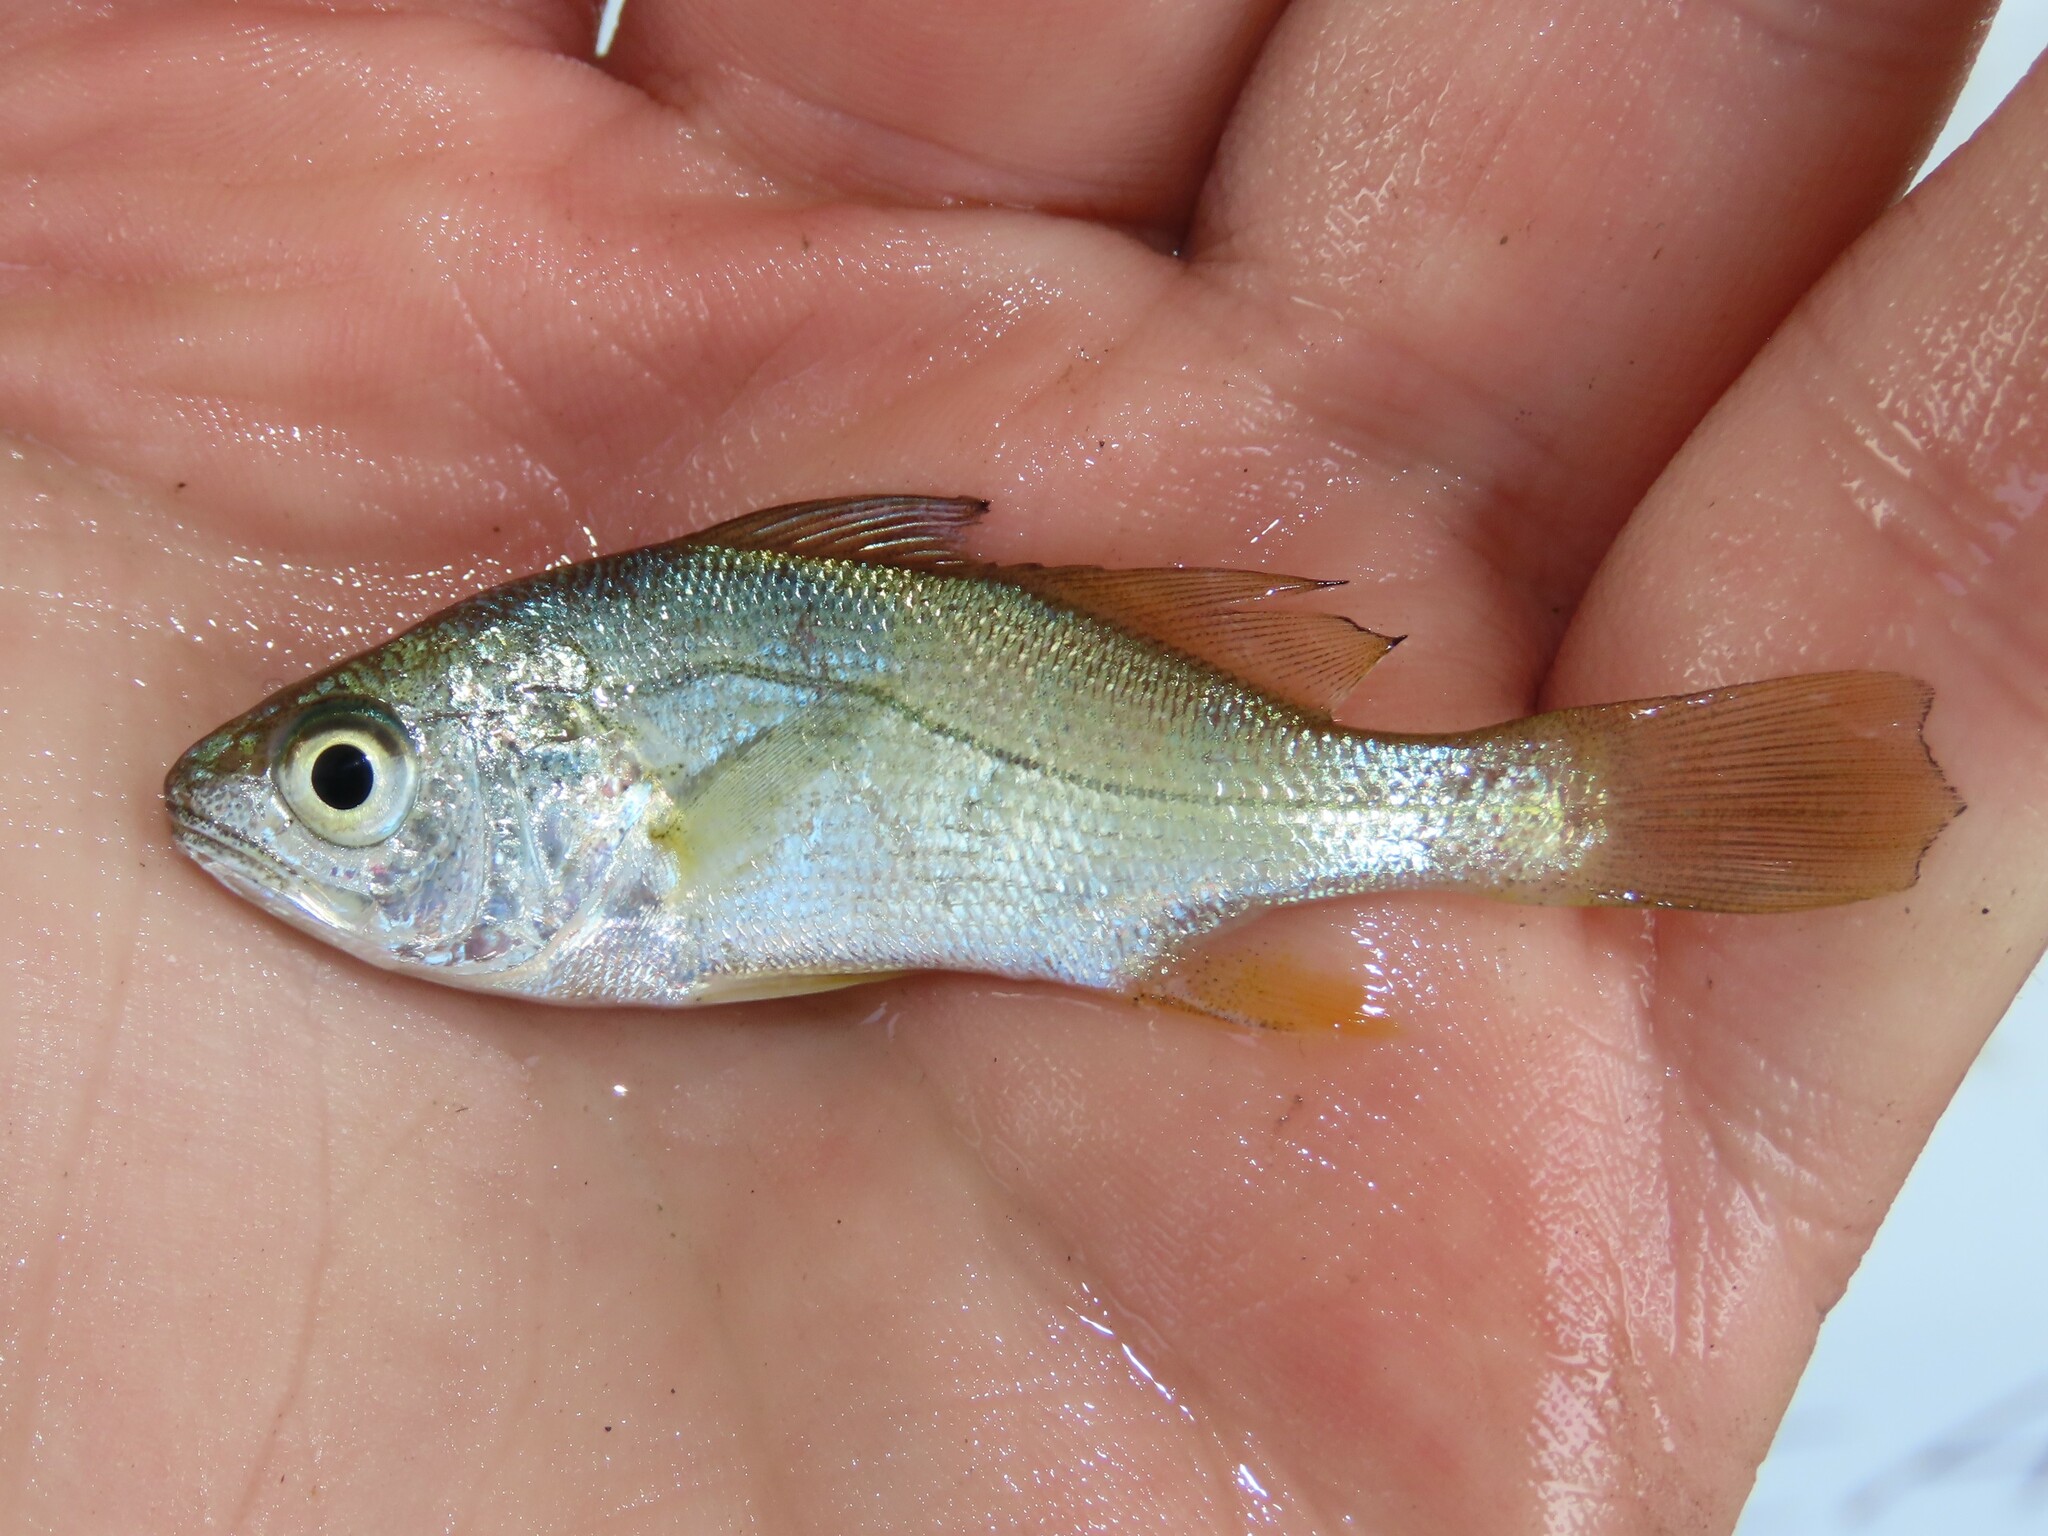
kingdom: Animalia
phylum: Chordata
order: Perciformes
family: Sciaenidae
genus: Bairdiella
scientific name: Bairdiella chrysoura
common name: Silver perch
